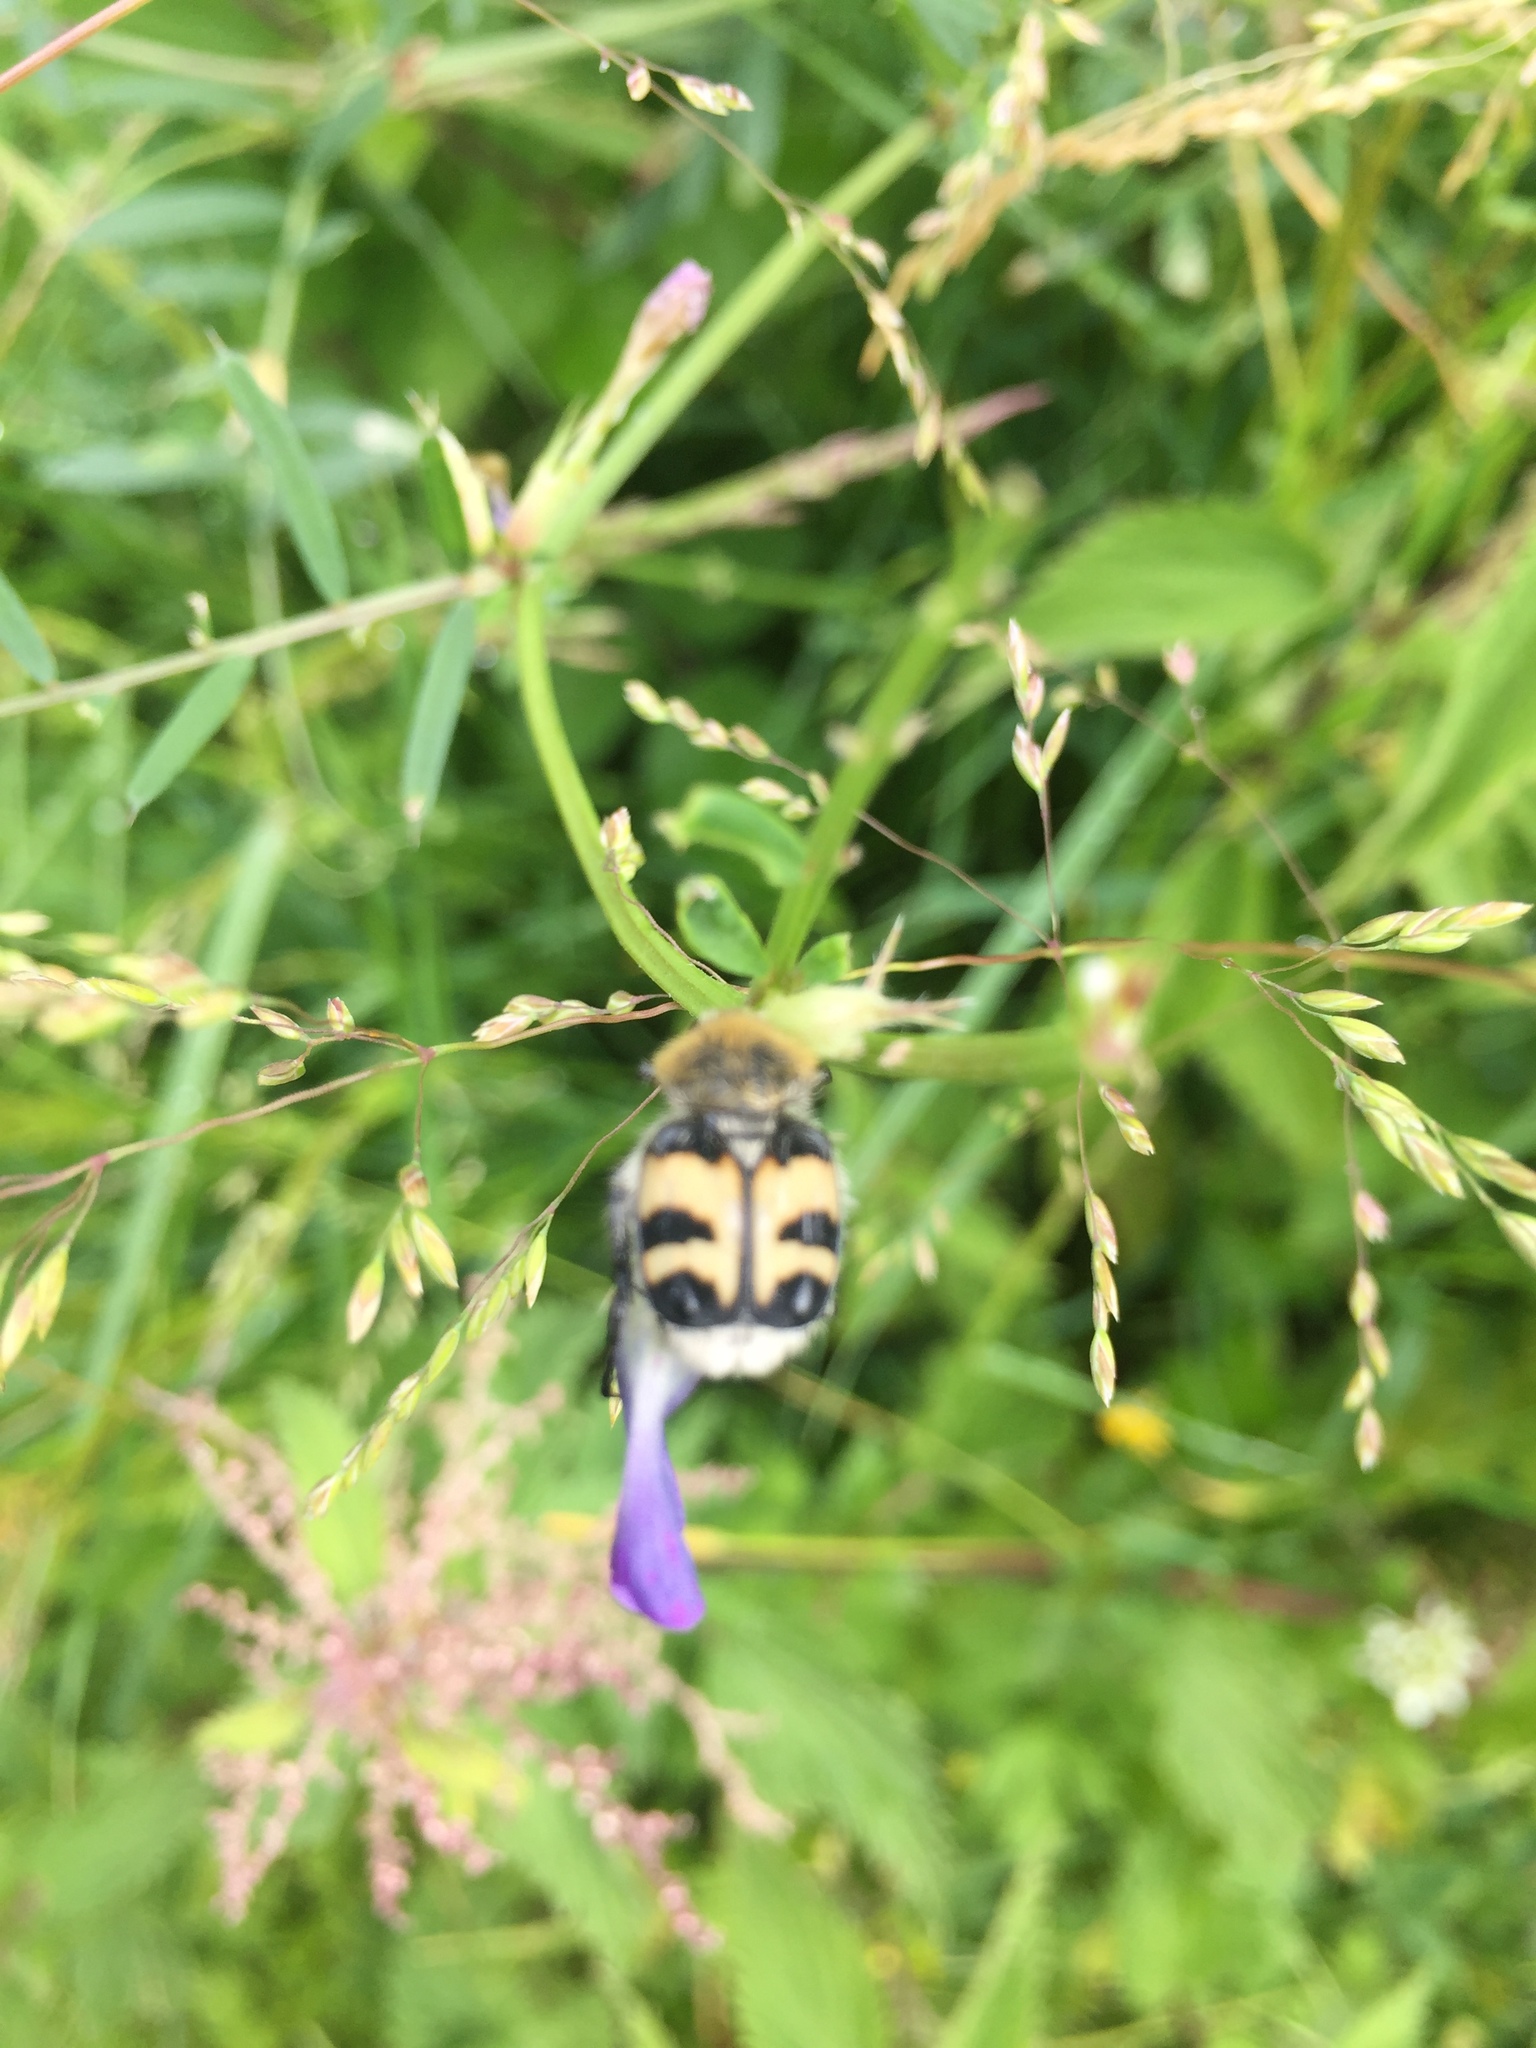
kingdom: Animalia
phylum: Arthropoda
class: Insecta
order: Coleoptera
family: Scarabaeidae
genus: Trichius
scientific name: Trichius fasciatus
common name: Bee beetle
